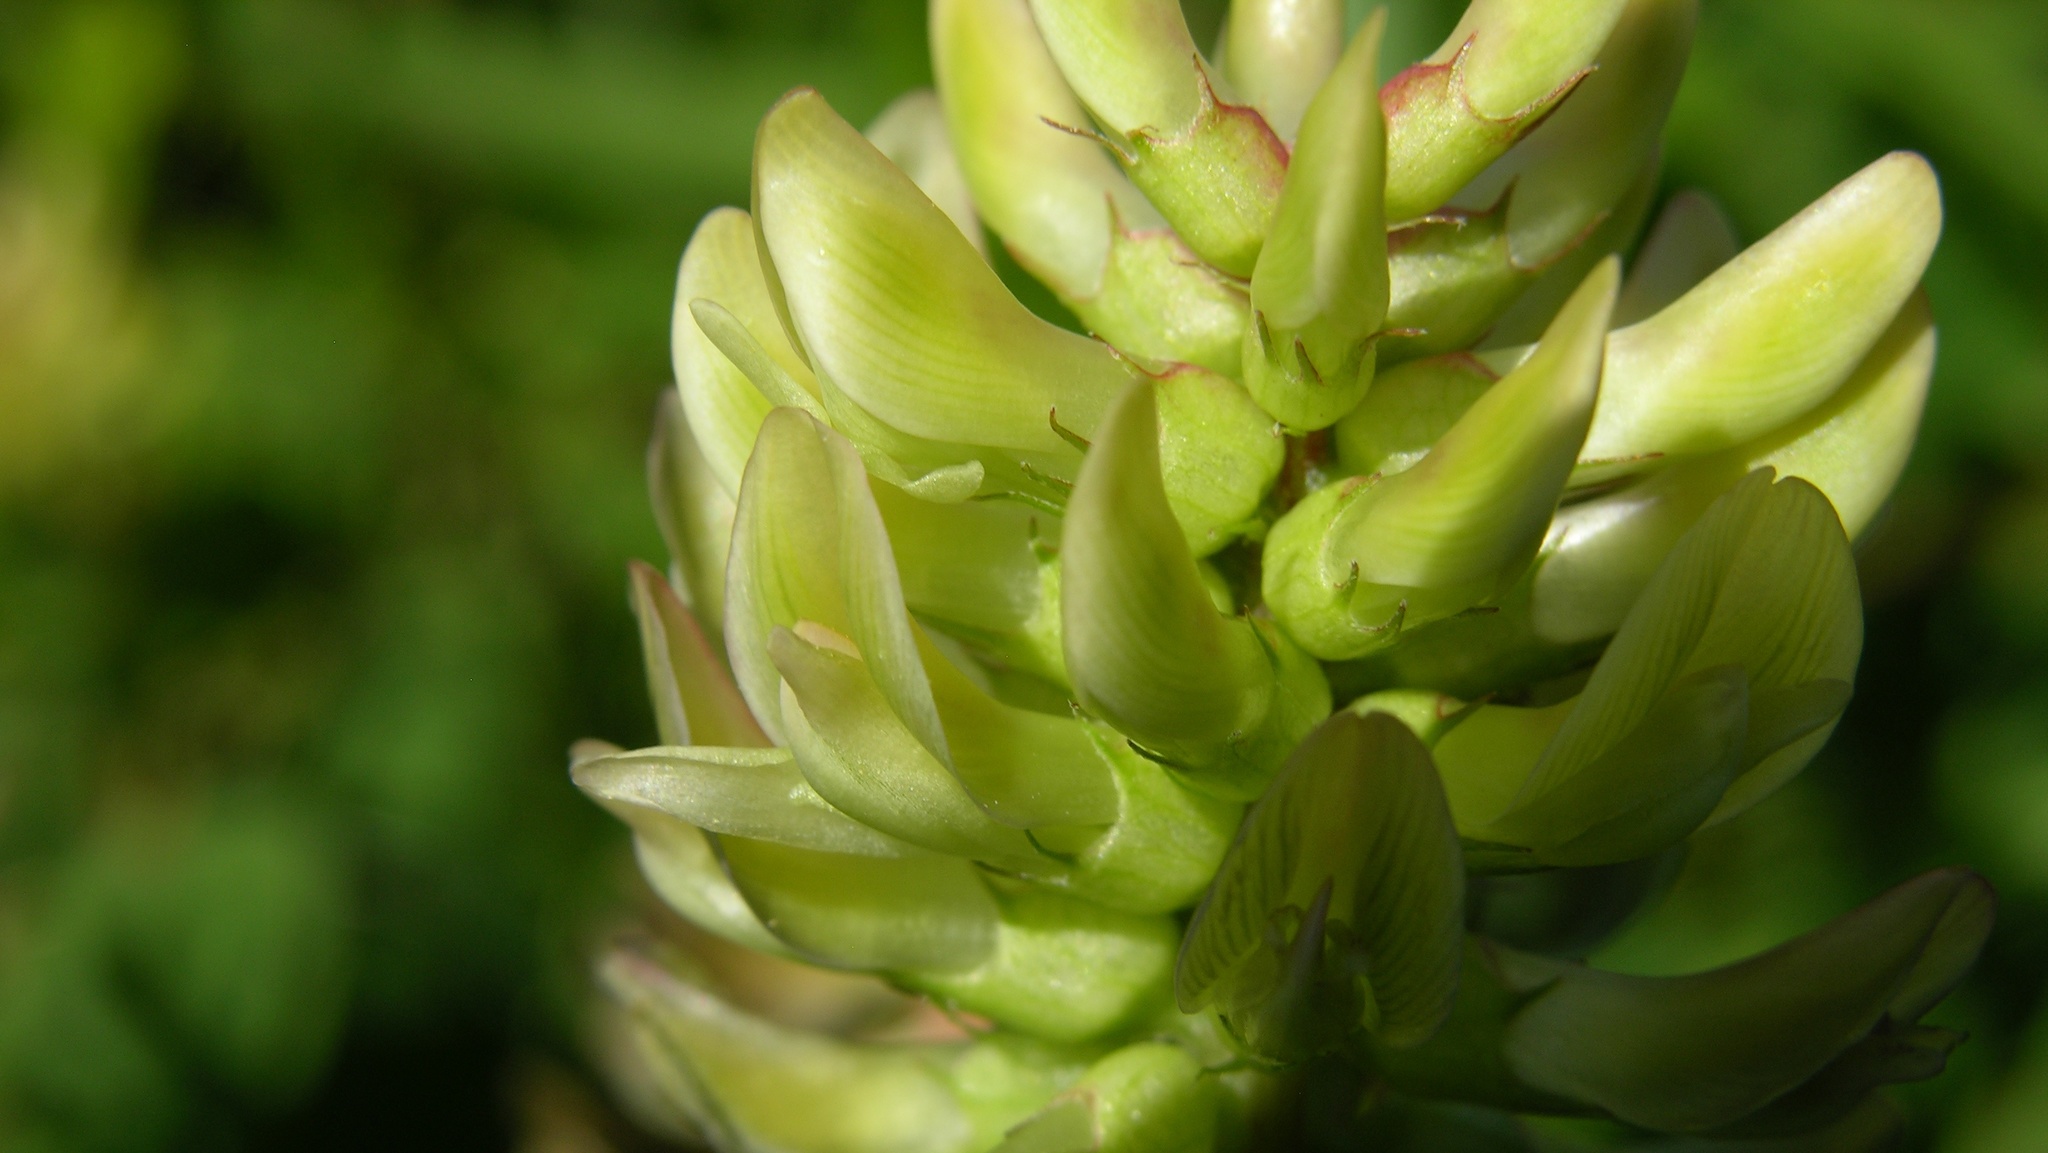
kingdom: Plantae
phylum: Tracheophyta
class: Magnoliopsida
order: Fabales
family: Fabaceae
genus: Astragalus
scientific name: Astragalus glycyphyllos
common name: Wild liquorice
